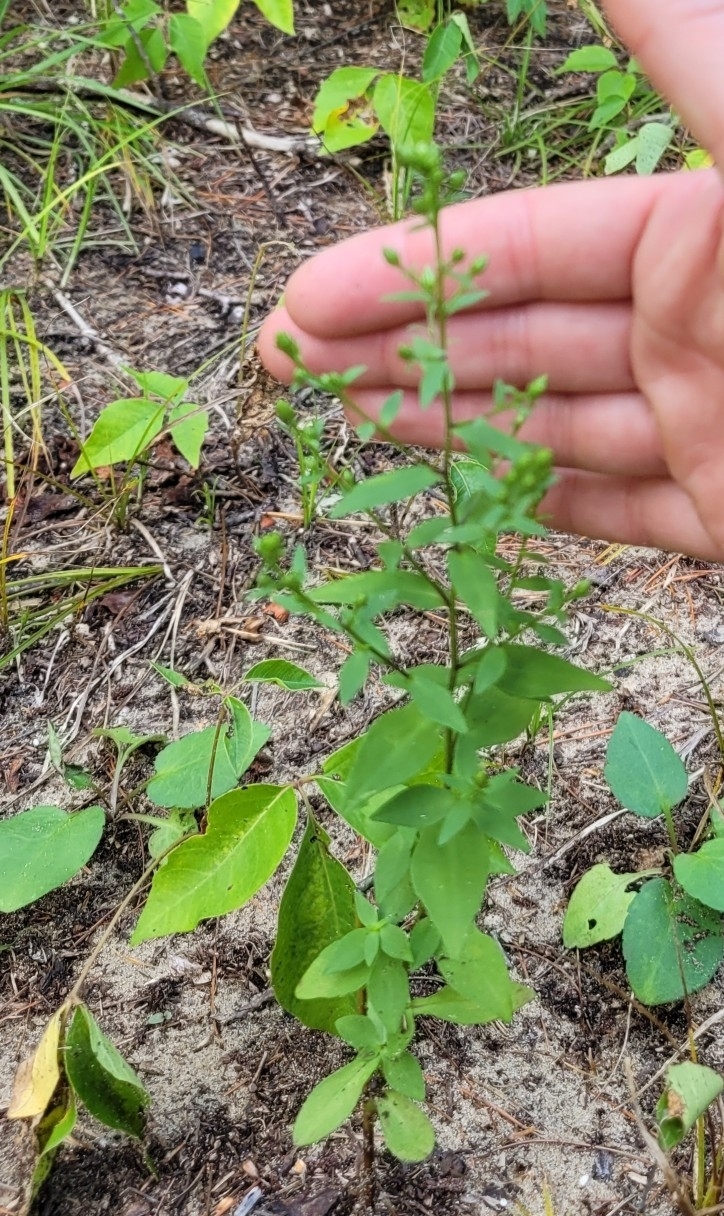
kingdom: Plantae
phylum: Tracheophyta
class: Magnoliopsida
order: Asterales
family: Campanulaceae
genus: Lobelia
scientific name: Lobelia inflata
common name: Indian tobacco
